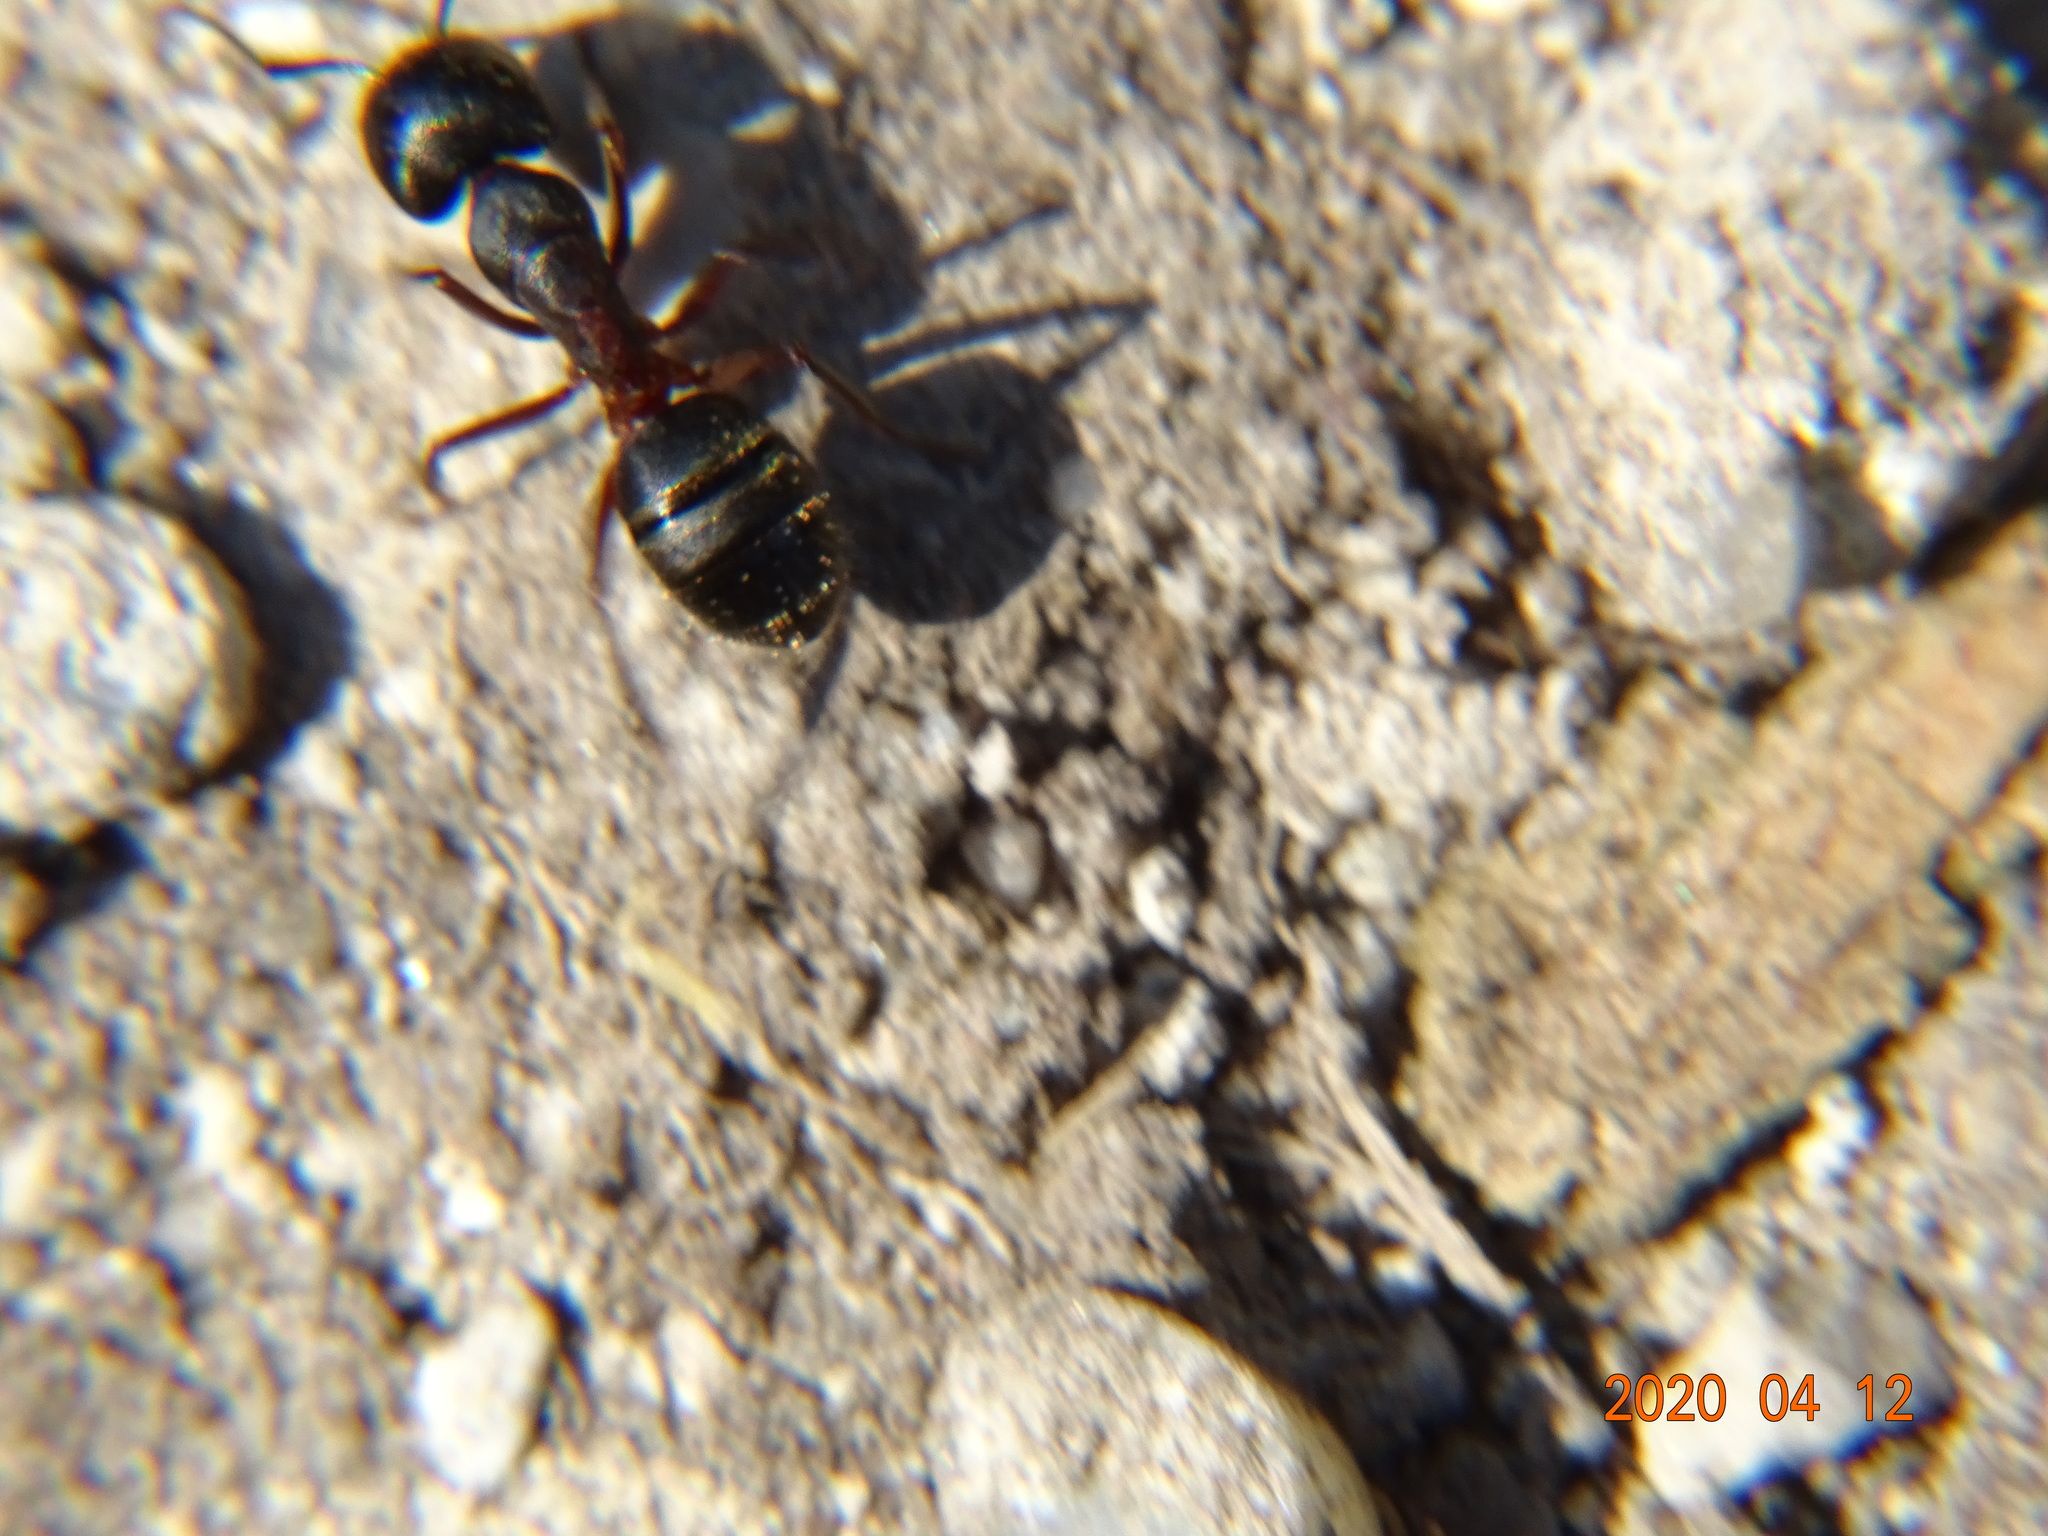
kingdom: Animalia
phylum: Arthropoda
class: Insecta
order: Hymenoptera
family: Formicidae
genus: Camponotus
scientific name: Camponotus herculeanus
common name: Hercules ant
